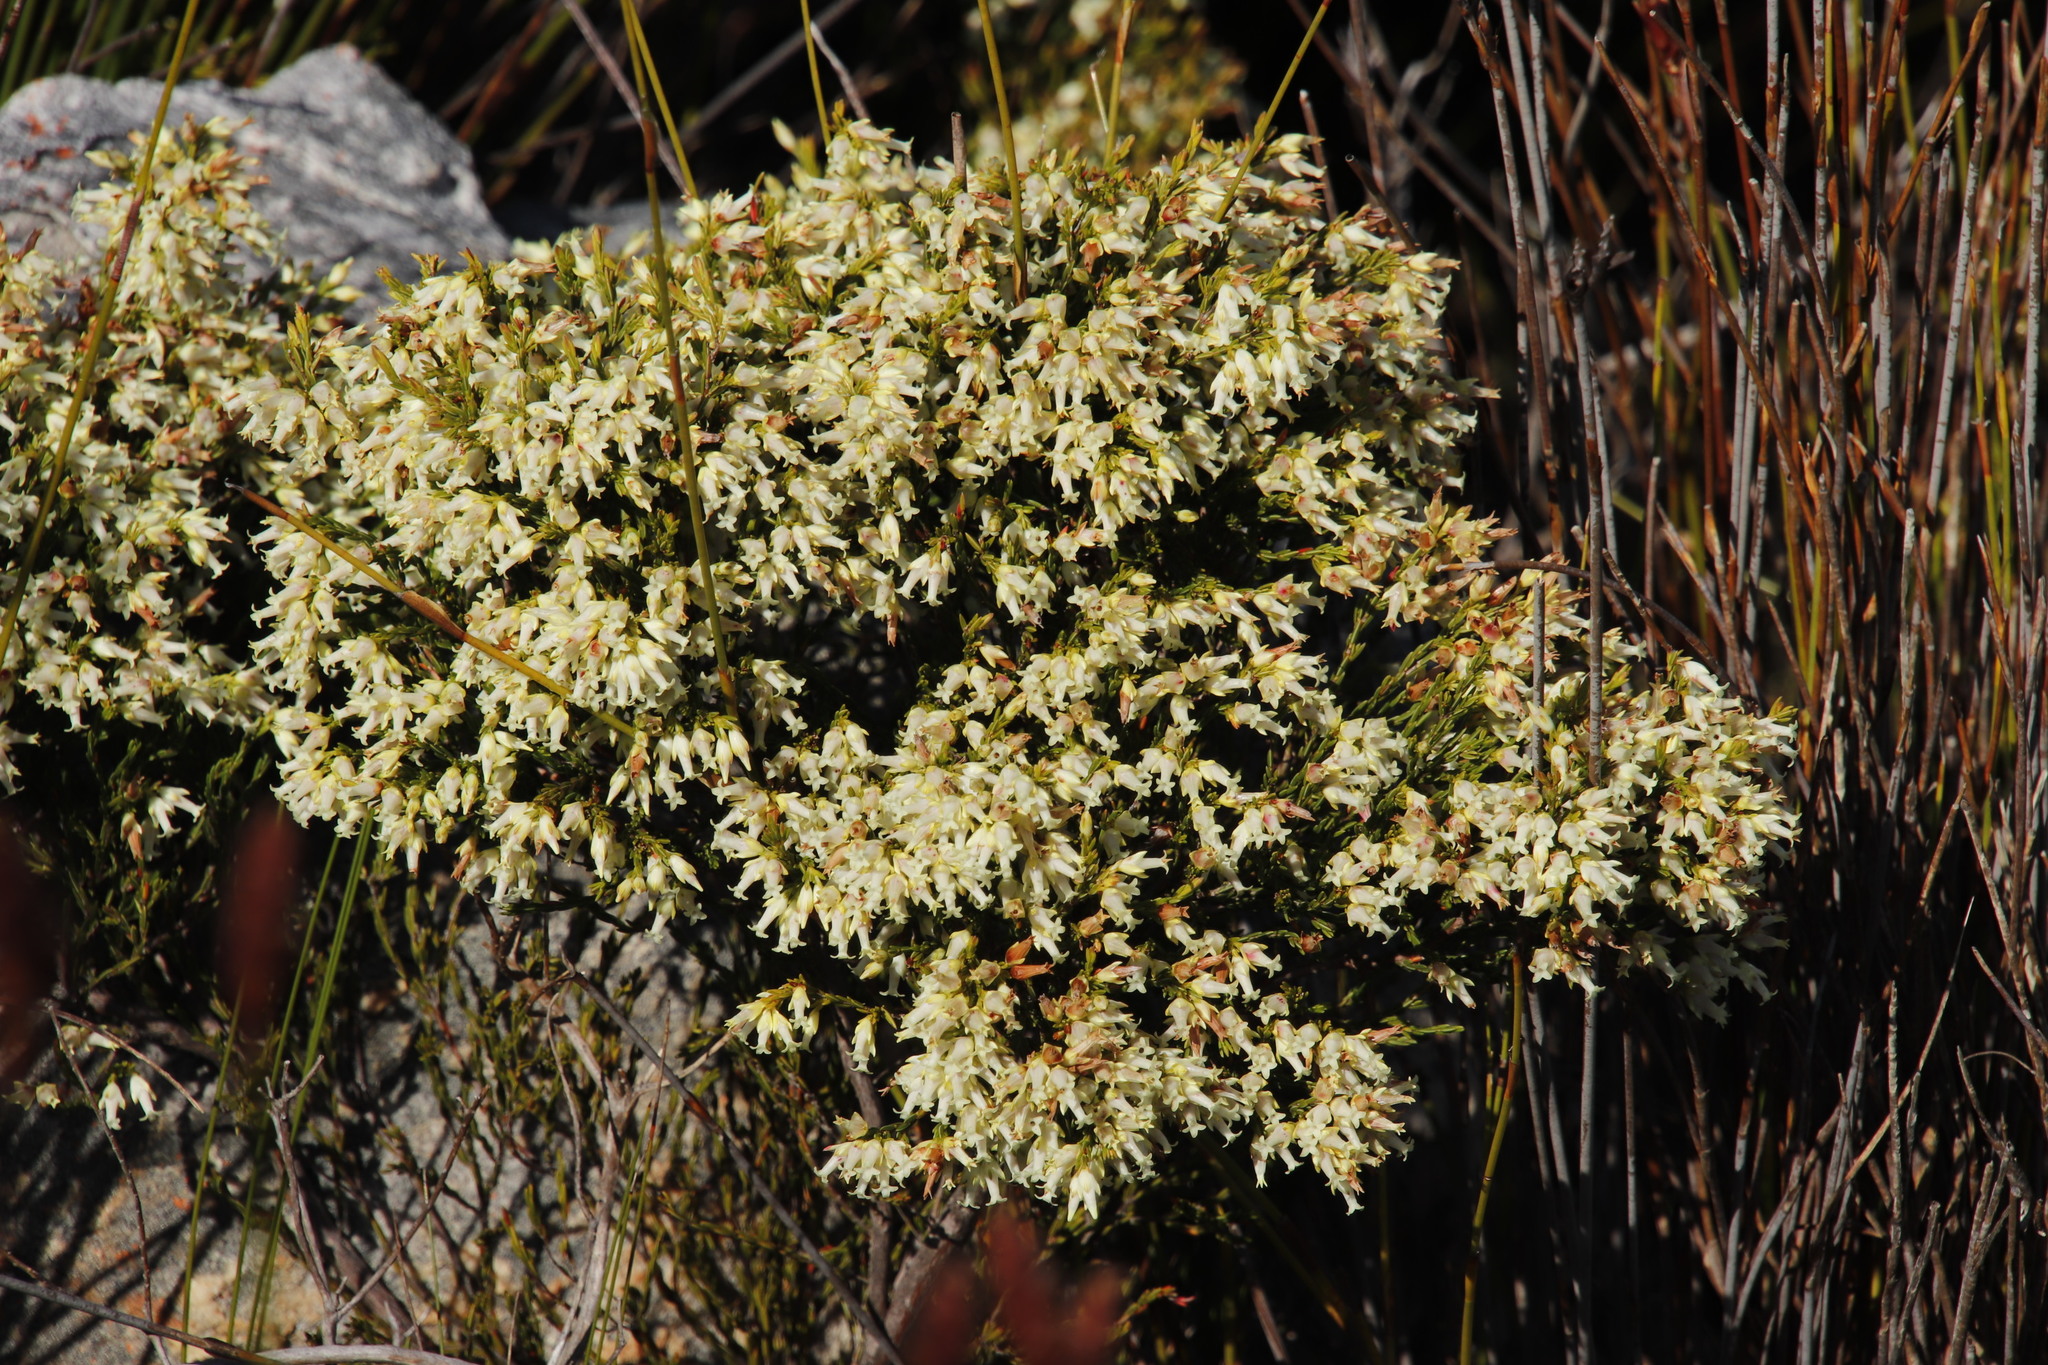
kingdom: Plantae
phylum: Tracheophyta
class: Magnoliopsida
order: Ericales
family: Ericaceae
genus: Erica
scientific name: Erica lutea
